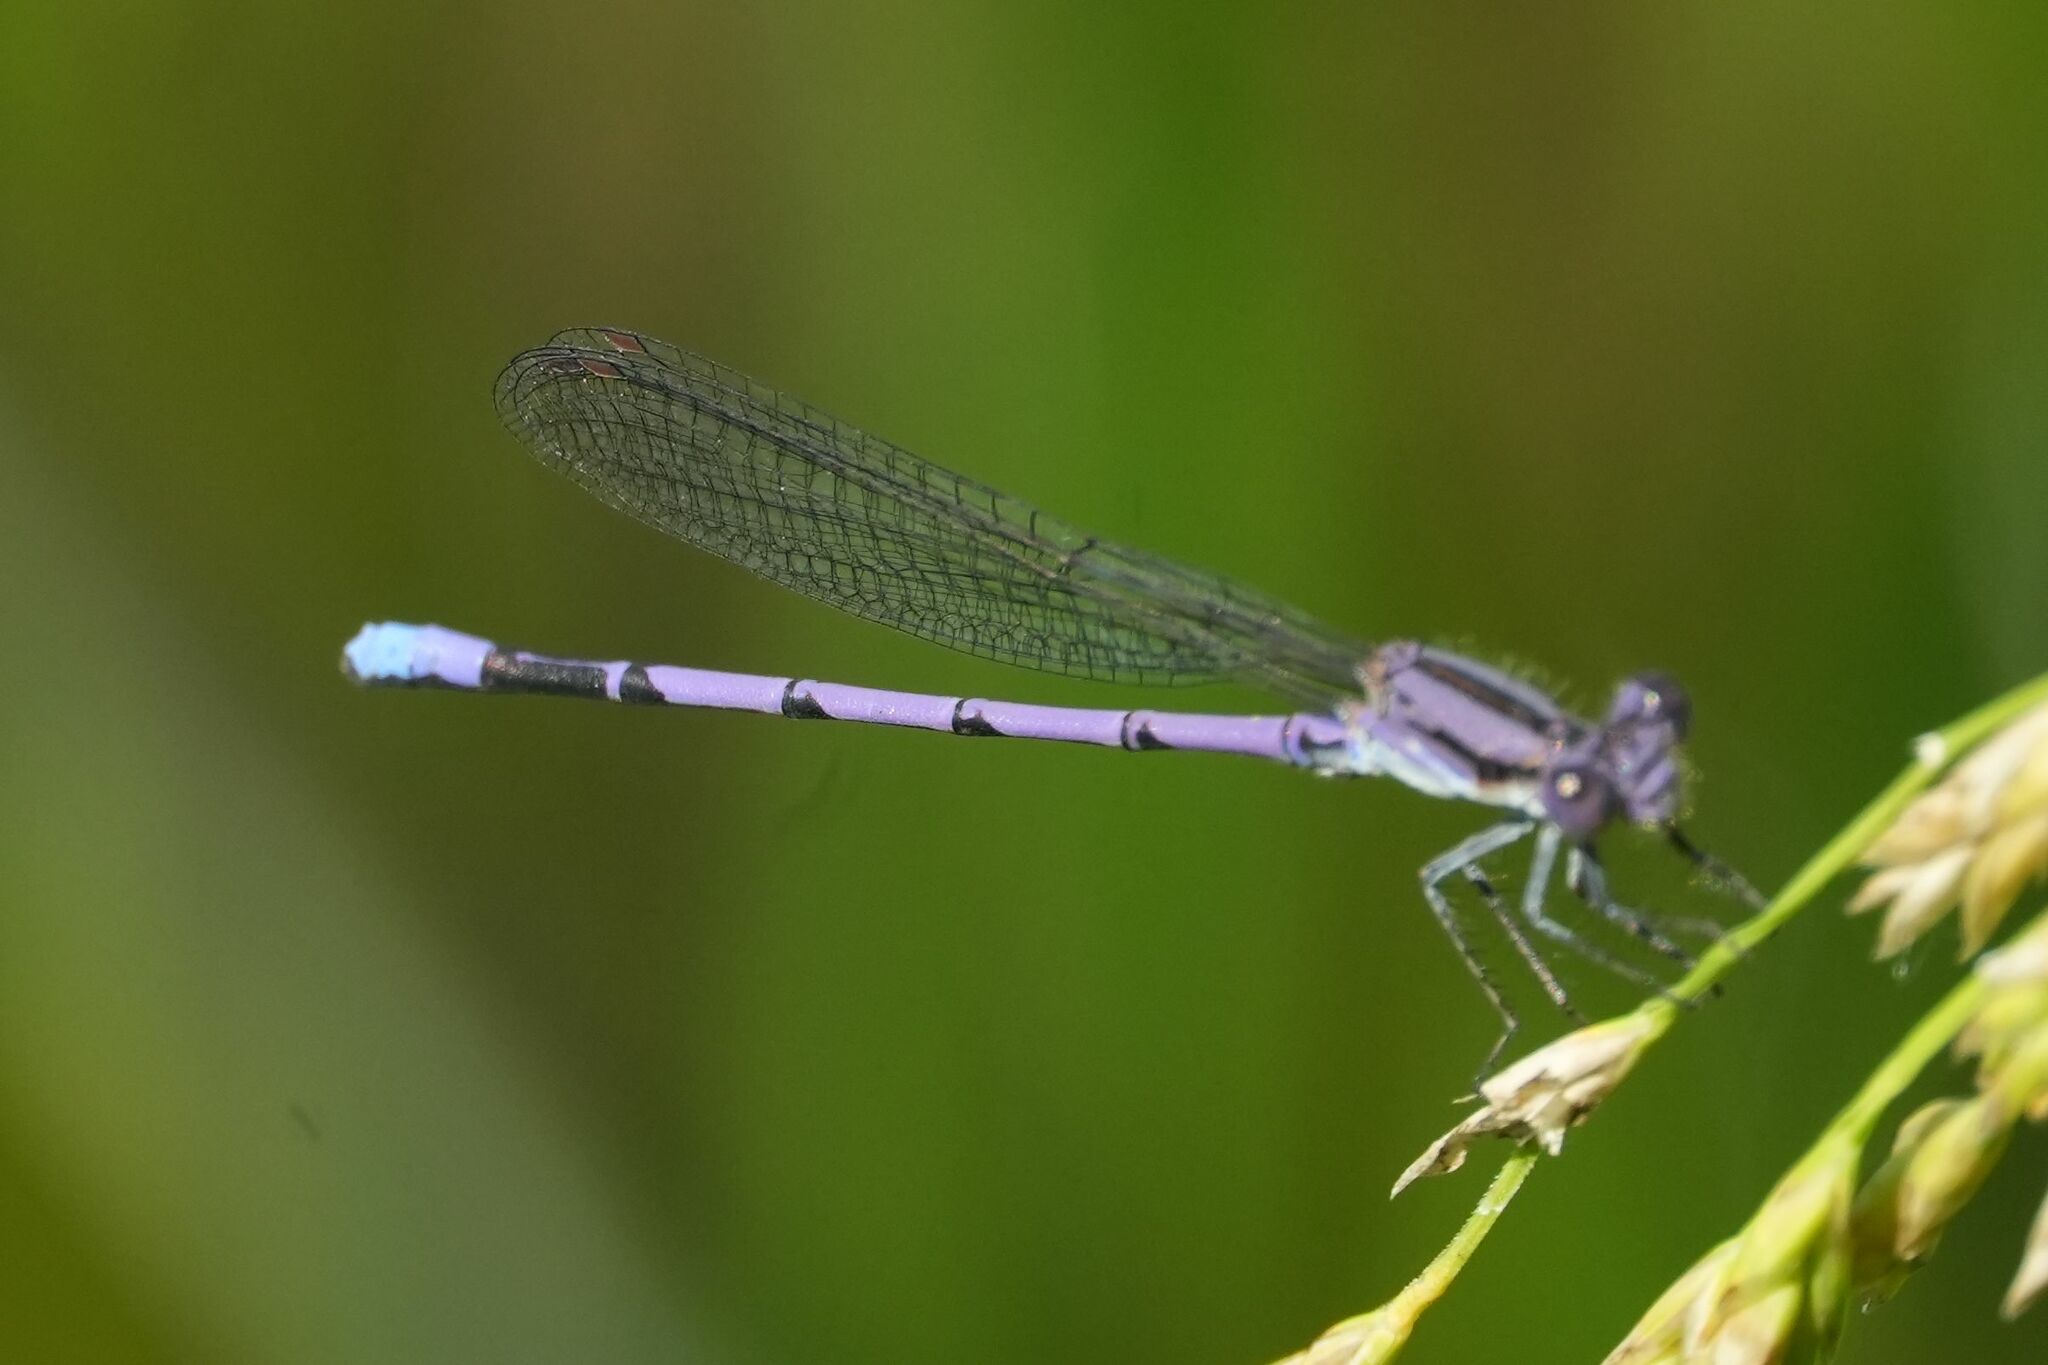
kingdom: Animalia
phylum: Arthropoda
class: Insecta
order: Odonata
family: Coenagrionidae
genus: Argia
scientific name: Argia fumipennis
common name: Variable dancer
